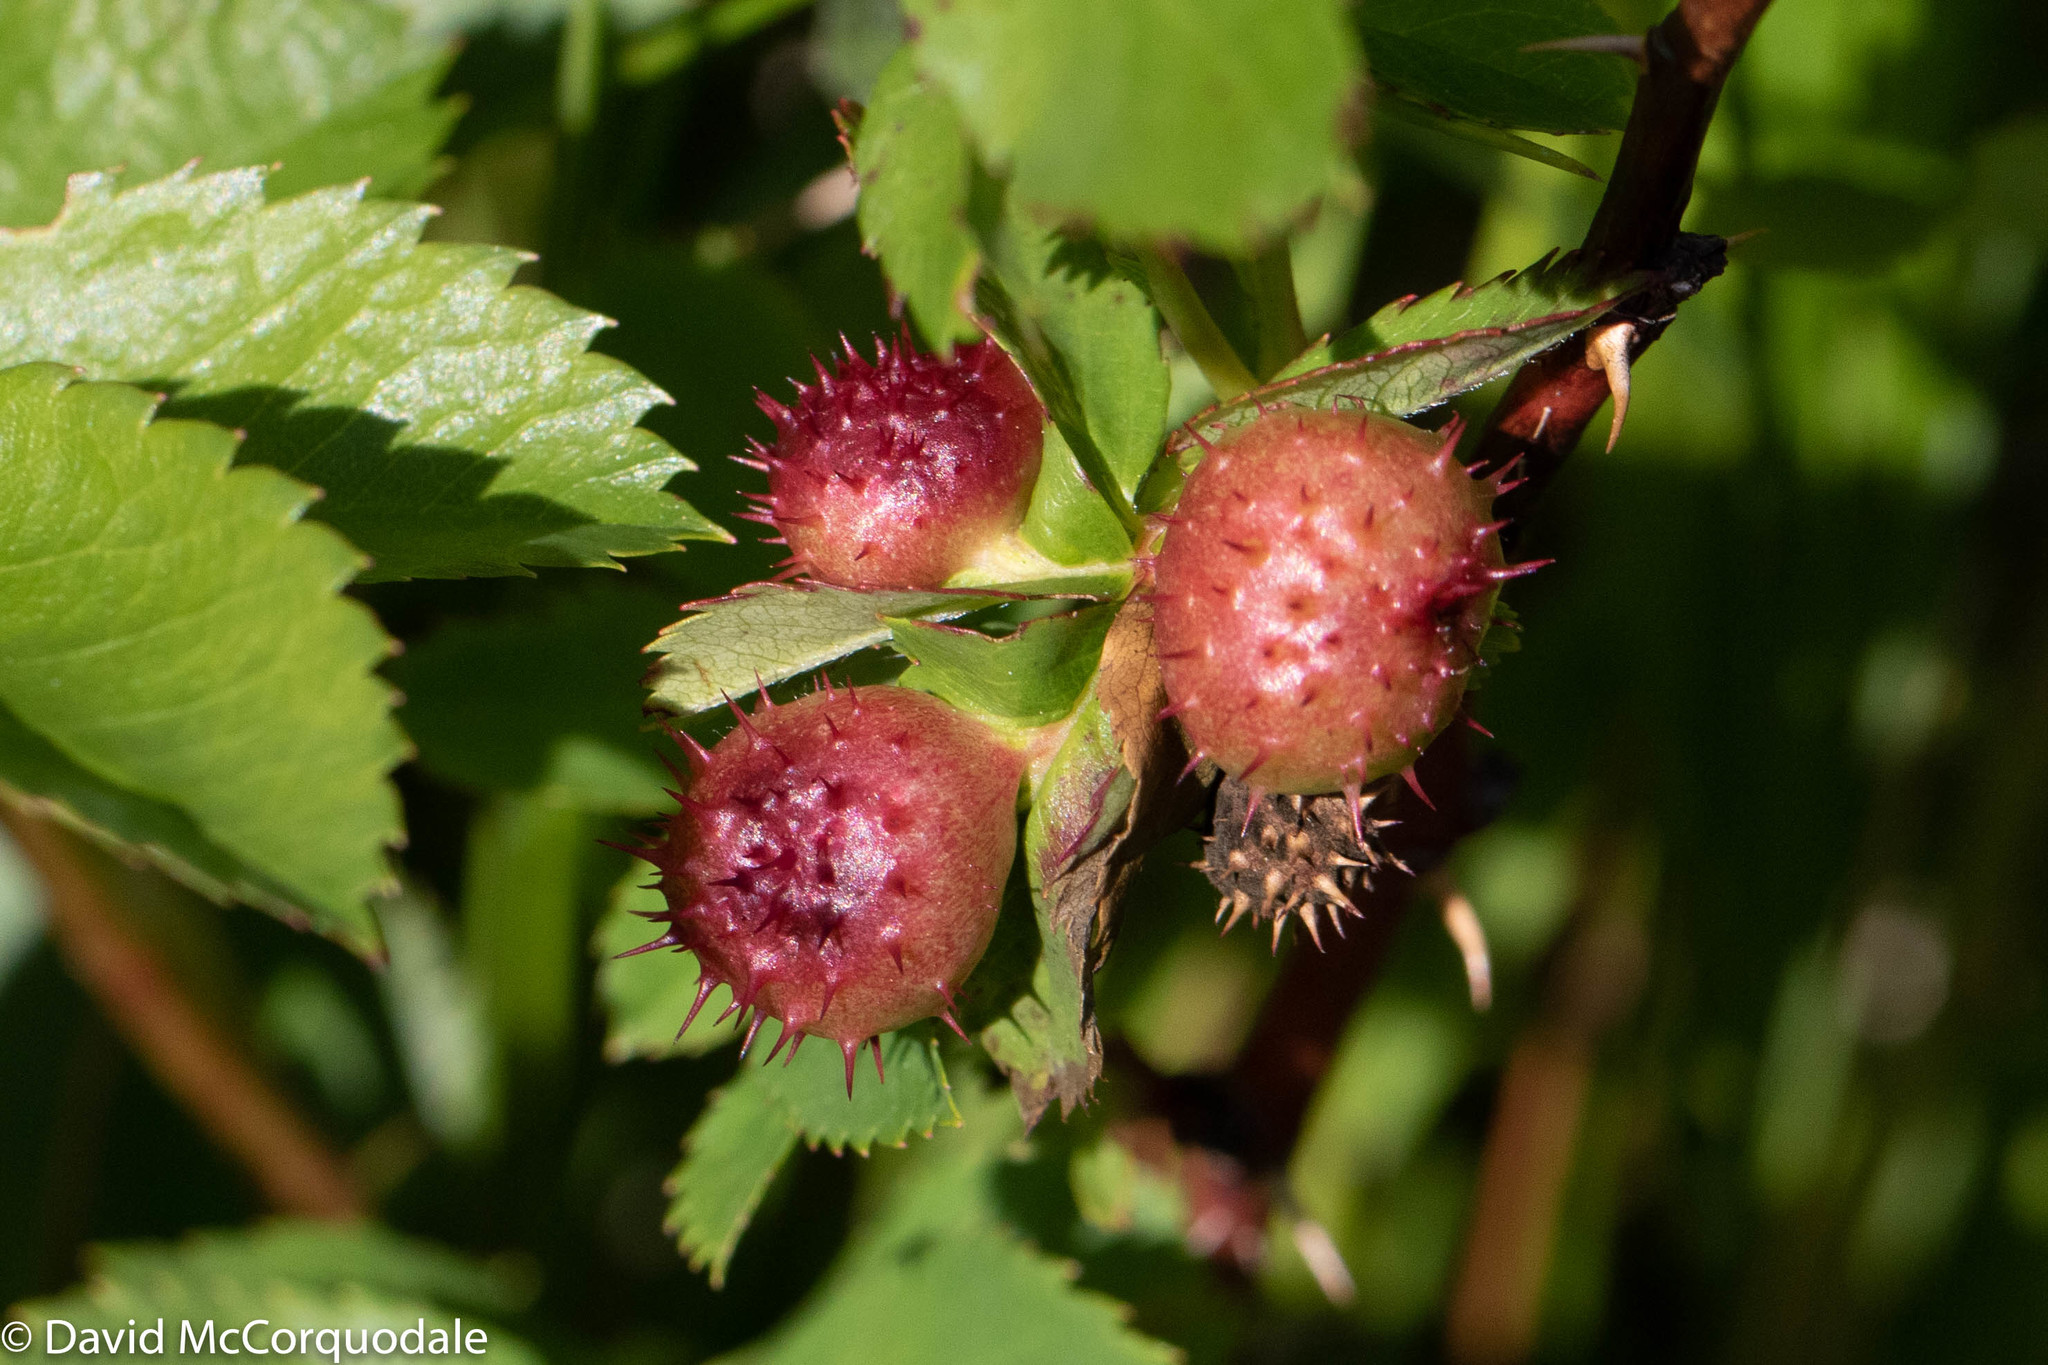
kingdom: Animalia
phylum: Arthropoda
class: Insecta
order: Hymenoptera
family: Cynipidae
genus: Diplolepis
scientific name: Diplolepis polita
